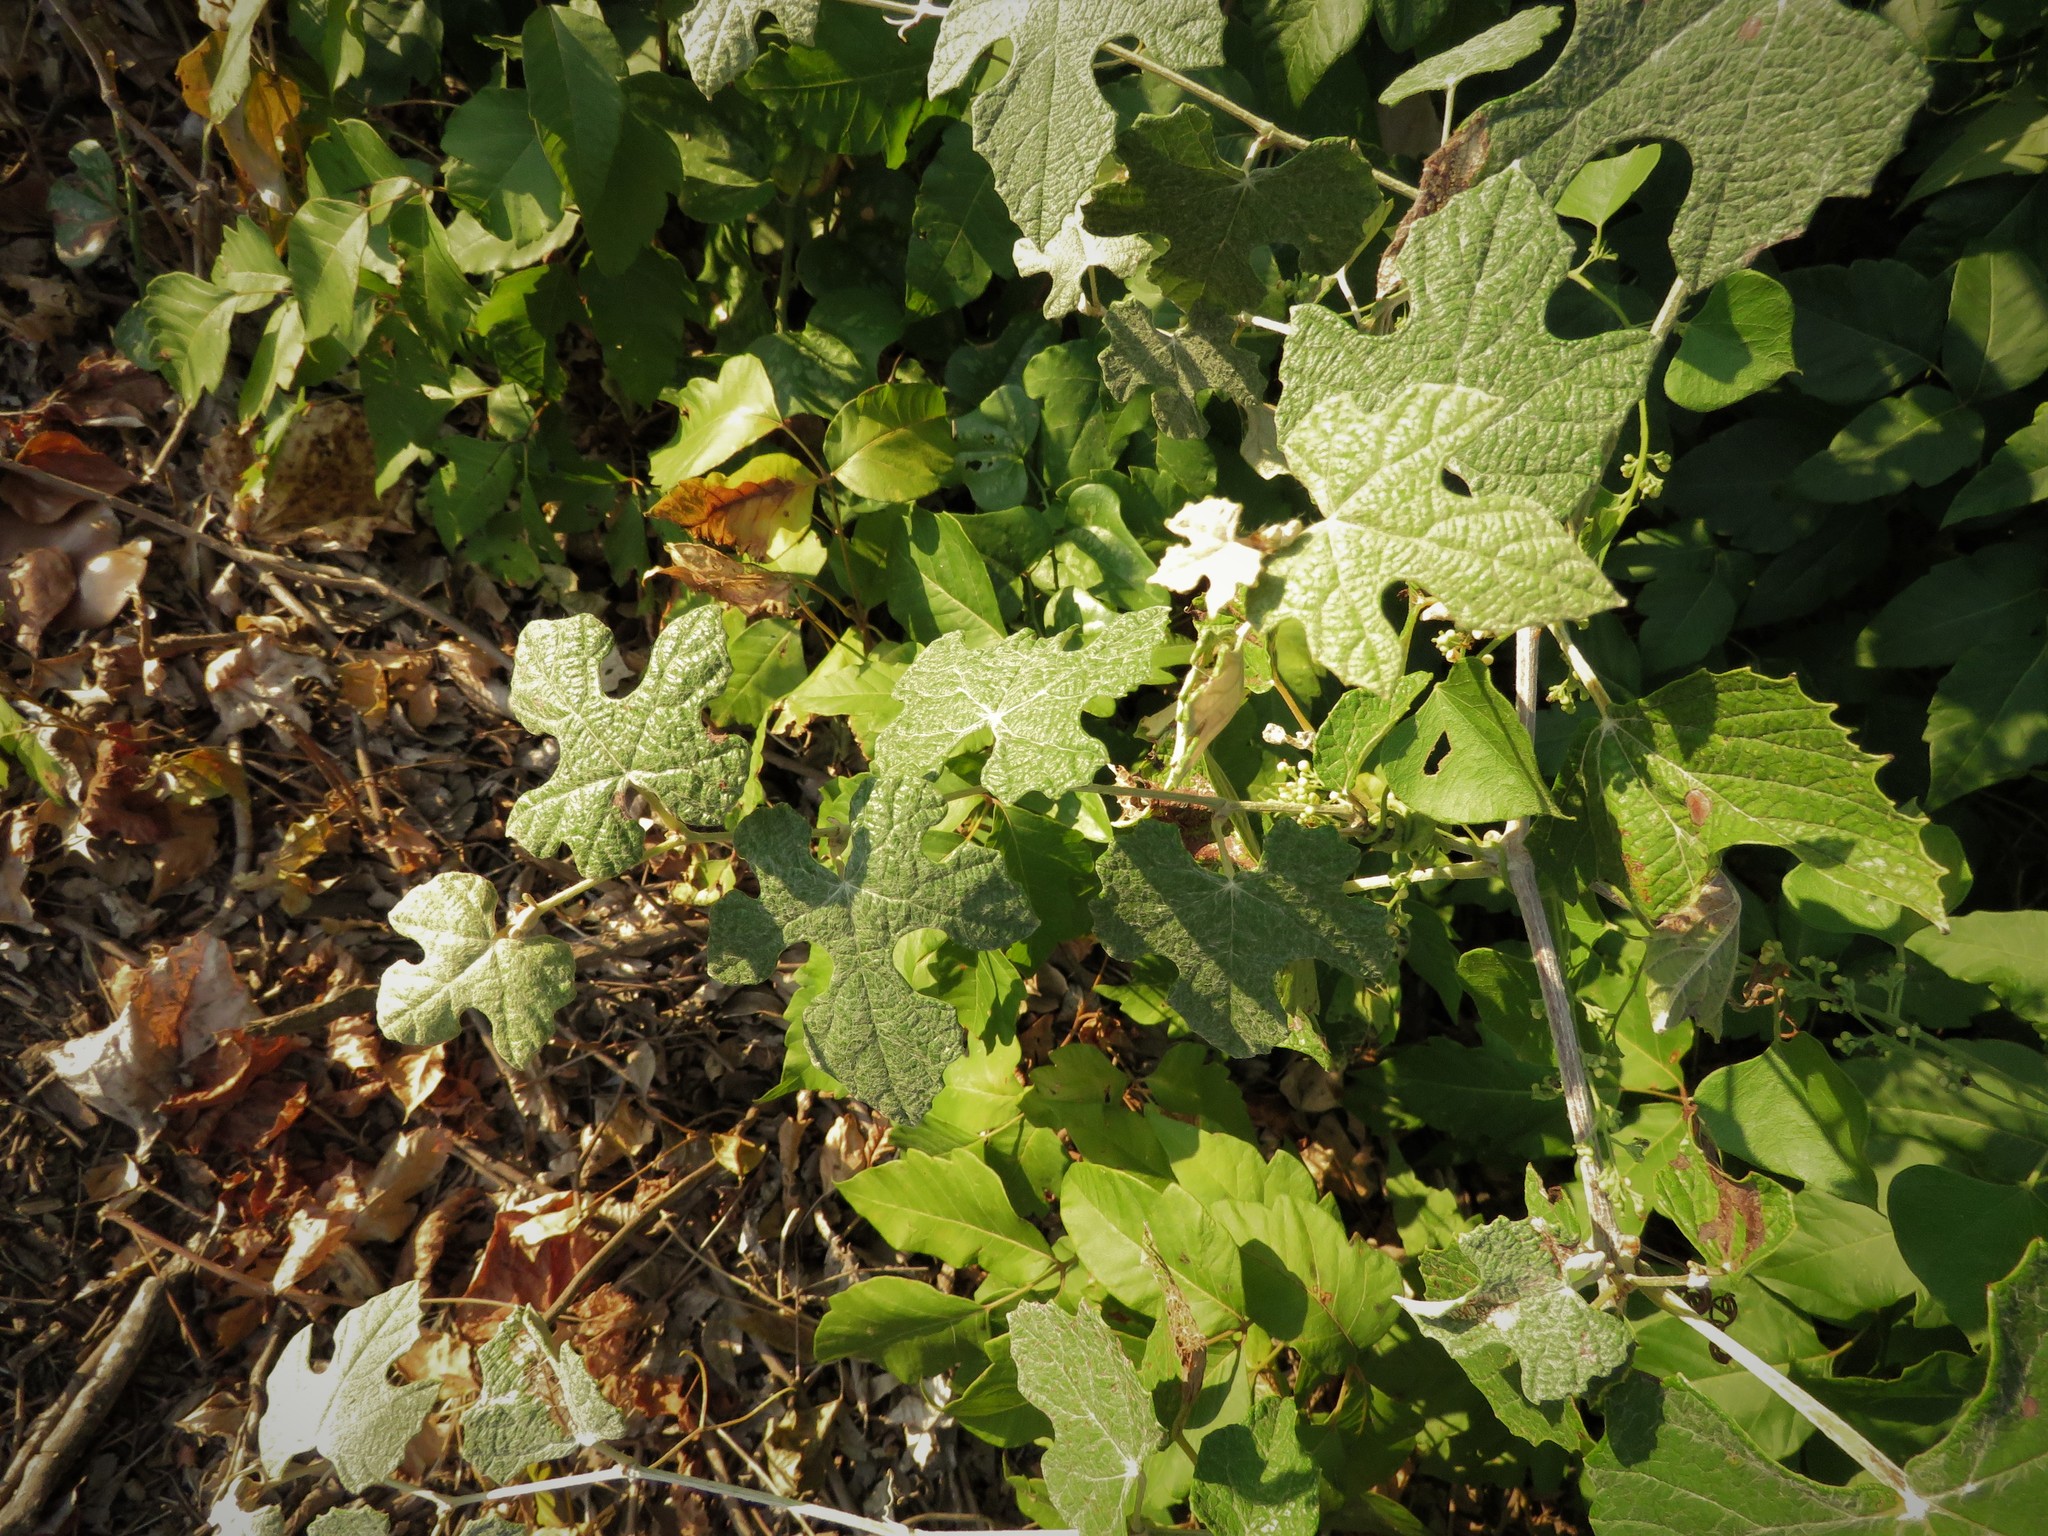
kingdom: Plantae
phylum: Tracheophyta
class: Magnoliopsida
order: Vitales
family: Vitaceae
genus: Vitis
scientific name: Vitis mustangensis
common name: Mustang grape
